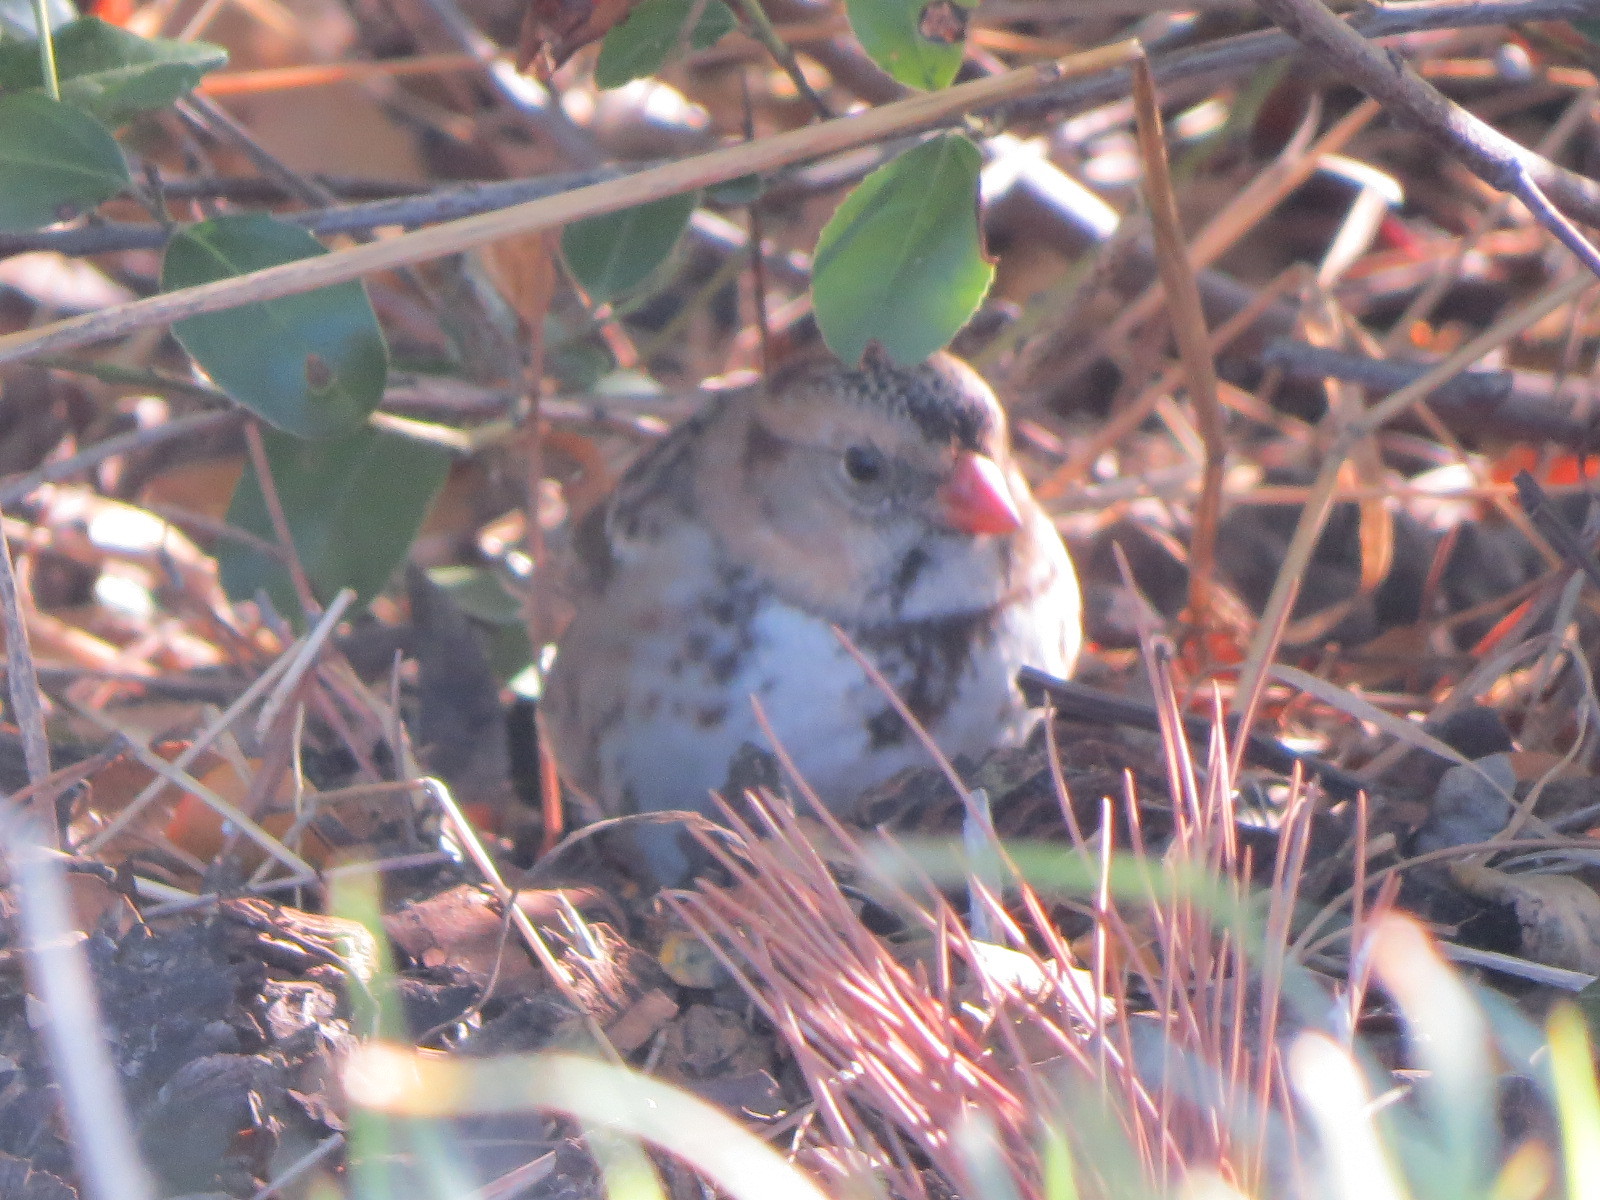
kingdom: Animalia
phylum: Chordata
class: Aves
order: Passeriformes
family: Passerellidae
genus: Zonotrichia
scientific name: Zonotrichia querula
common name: Harris's sparrow
